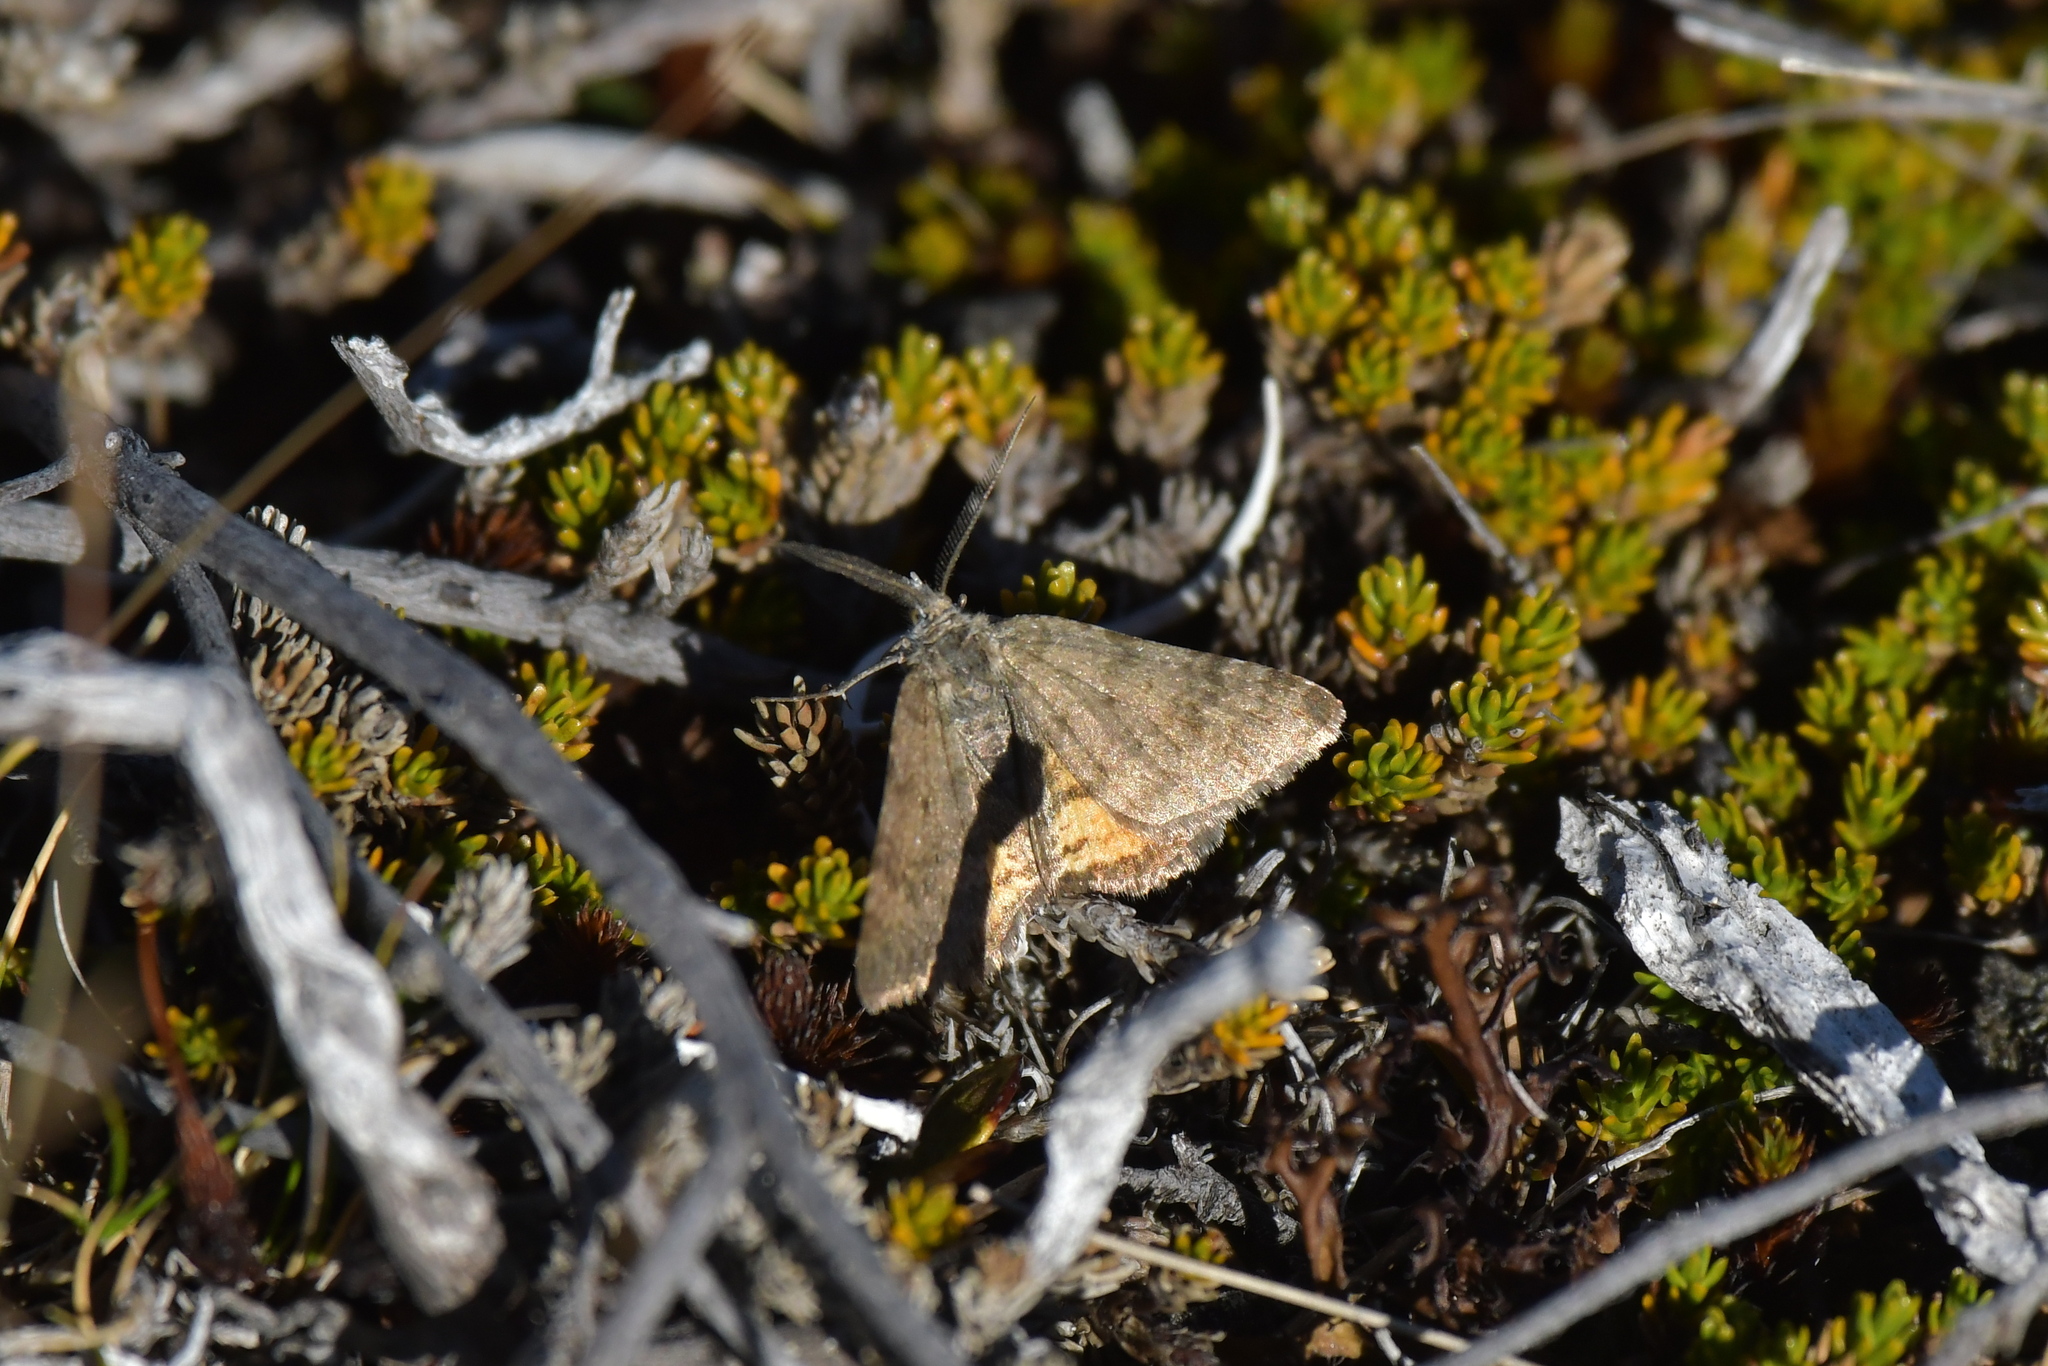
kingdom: Animalia
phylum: Arthropoda
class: Insecta
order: Lepidoptera
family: Geometridae
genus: Paranotoreas
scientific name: Paranotoreas brephosata
